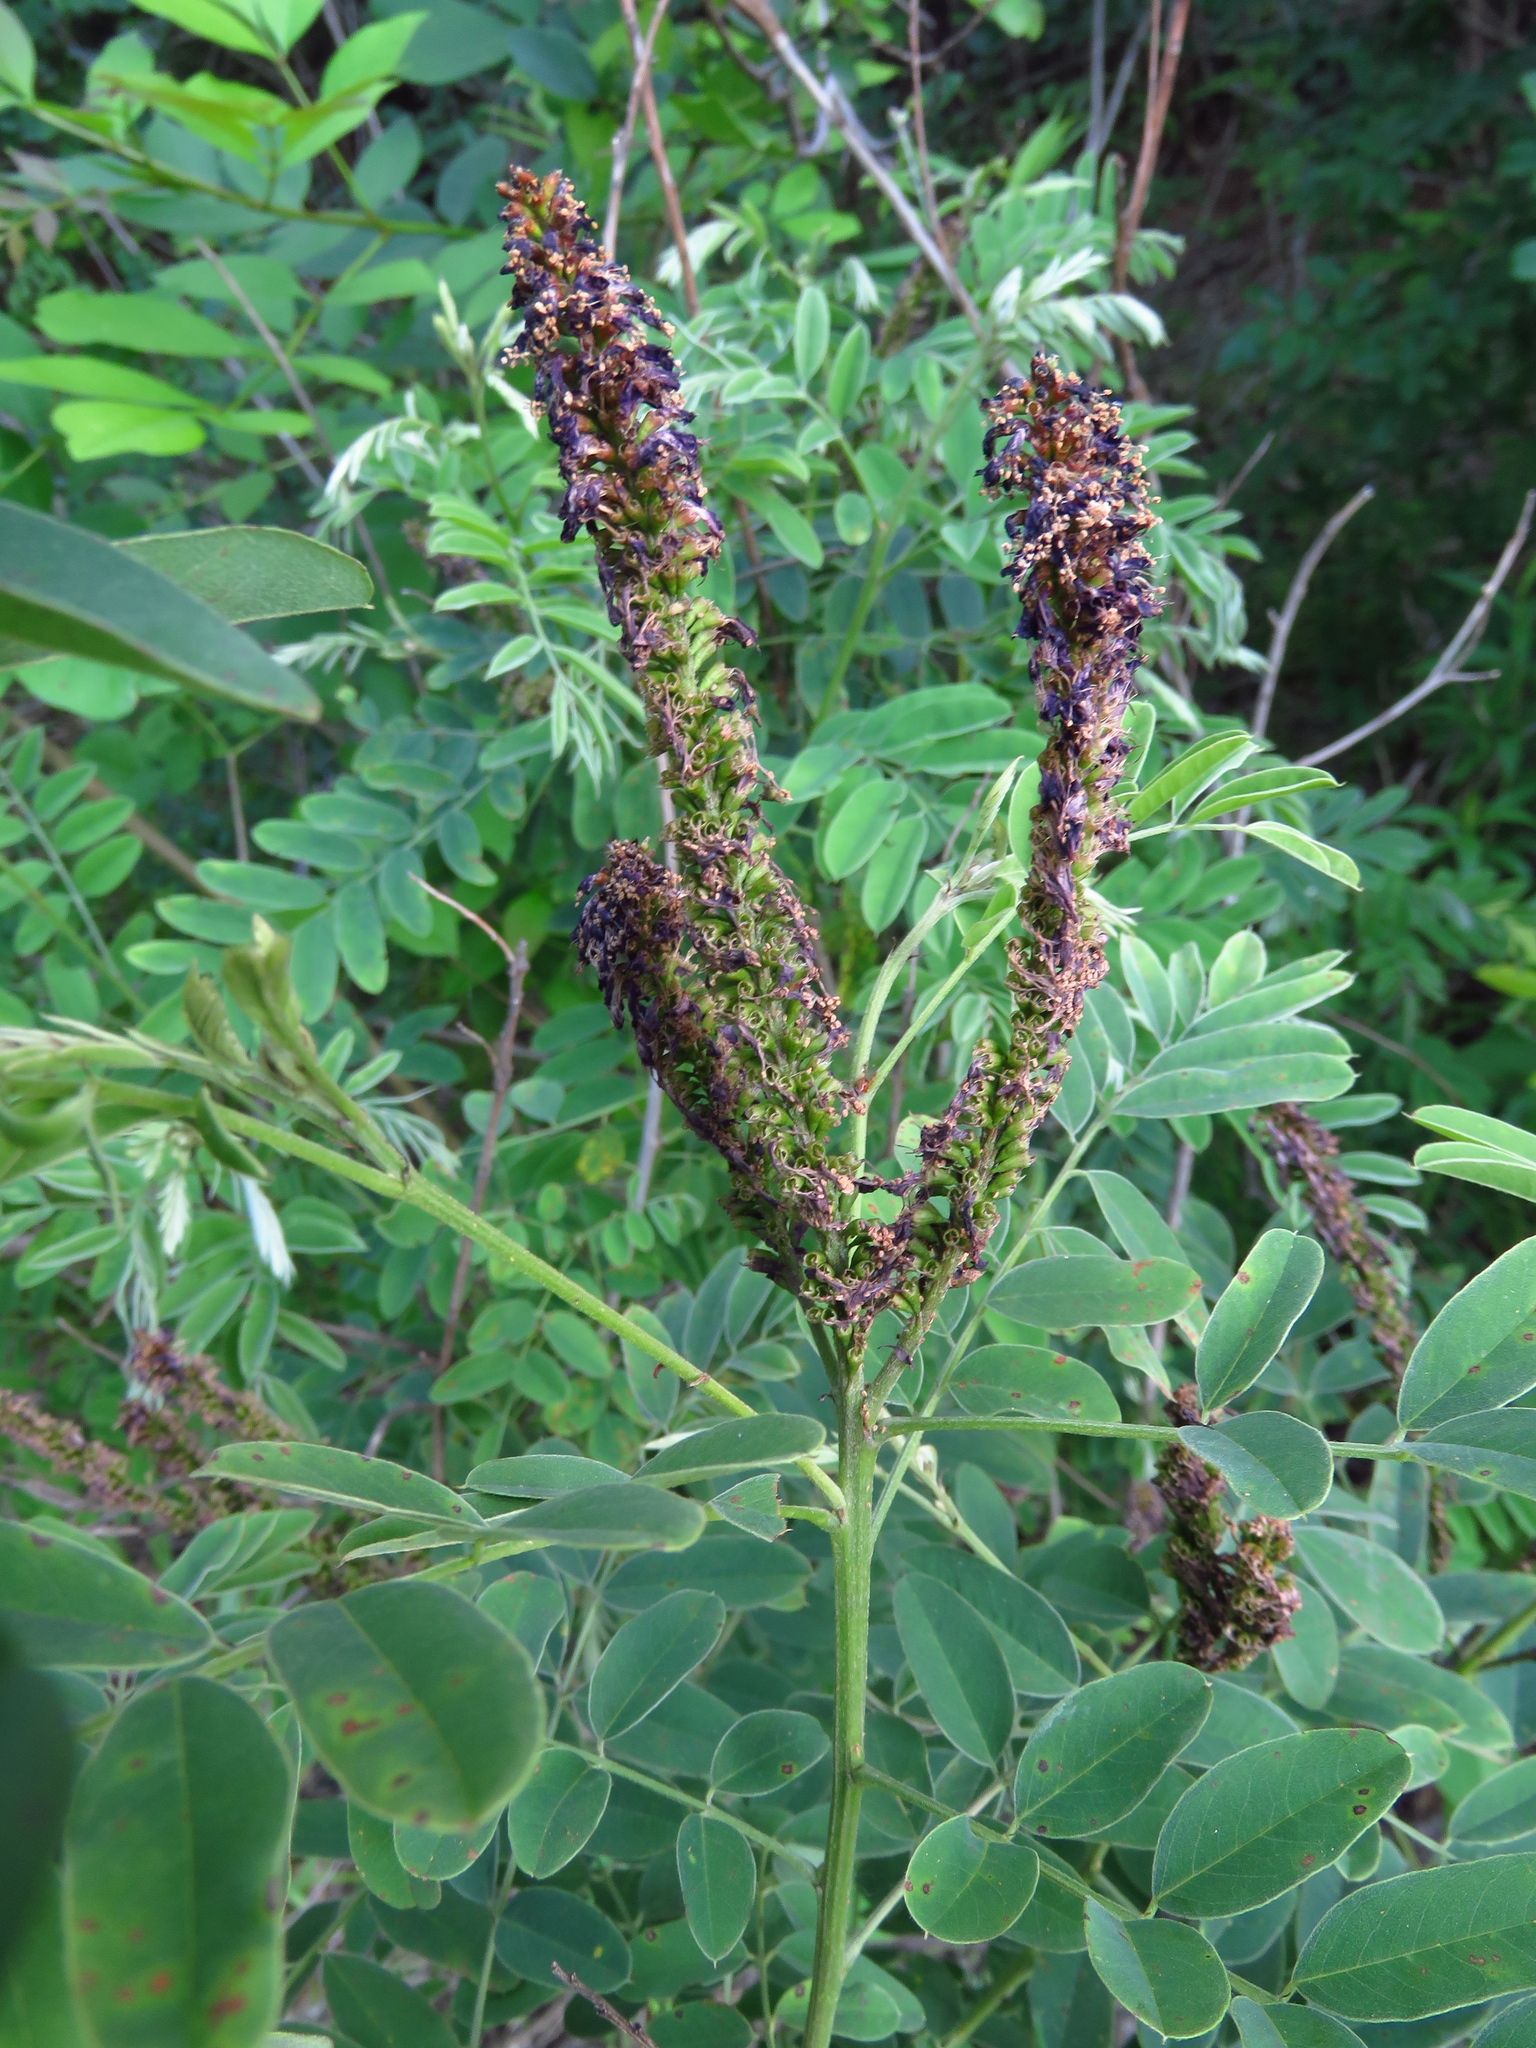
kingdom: Plantae
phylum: Tracheophyta
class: Magnoliopsida
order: Fabales
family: Fabaceae
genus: Amorpha
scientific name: Amorpha fruticosa
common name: False indigo
